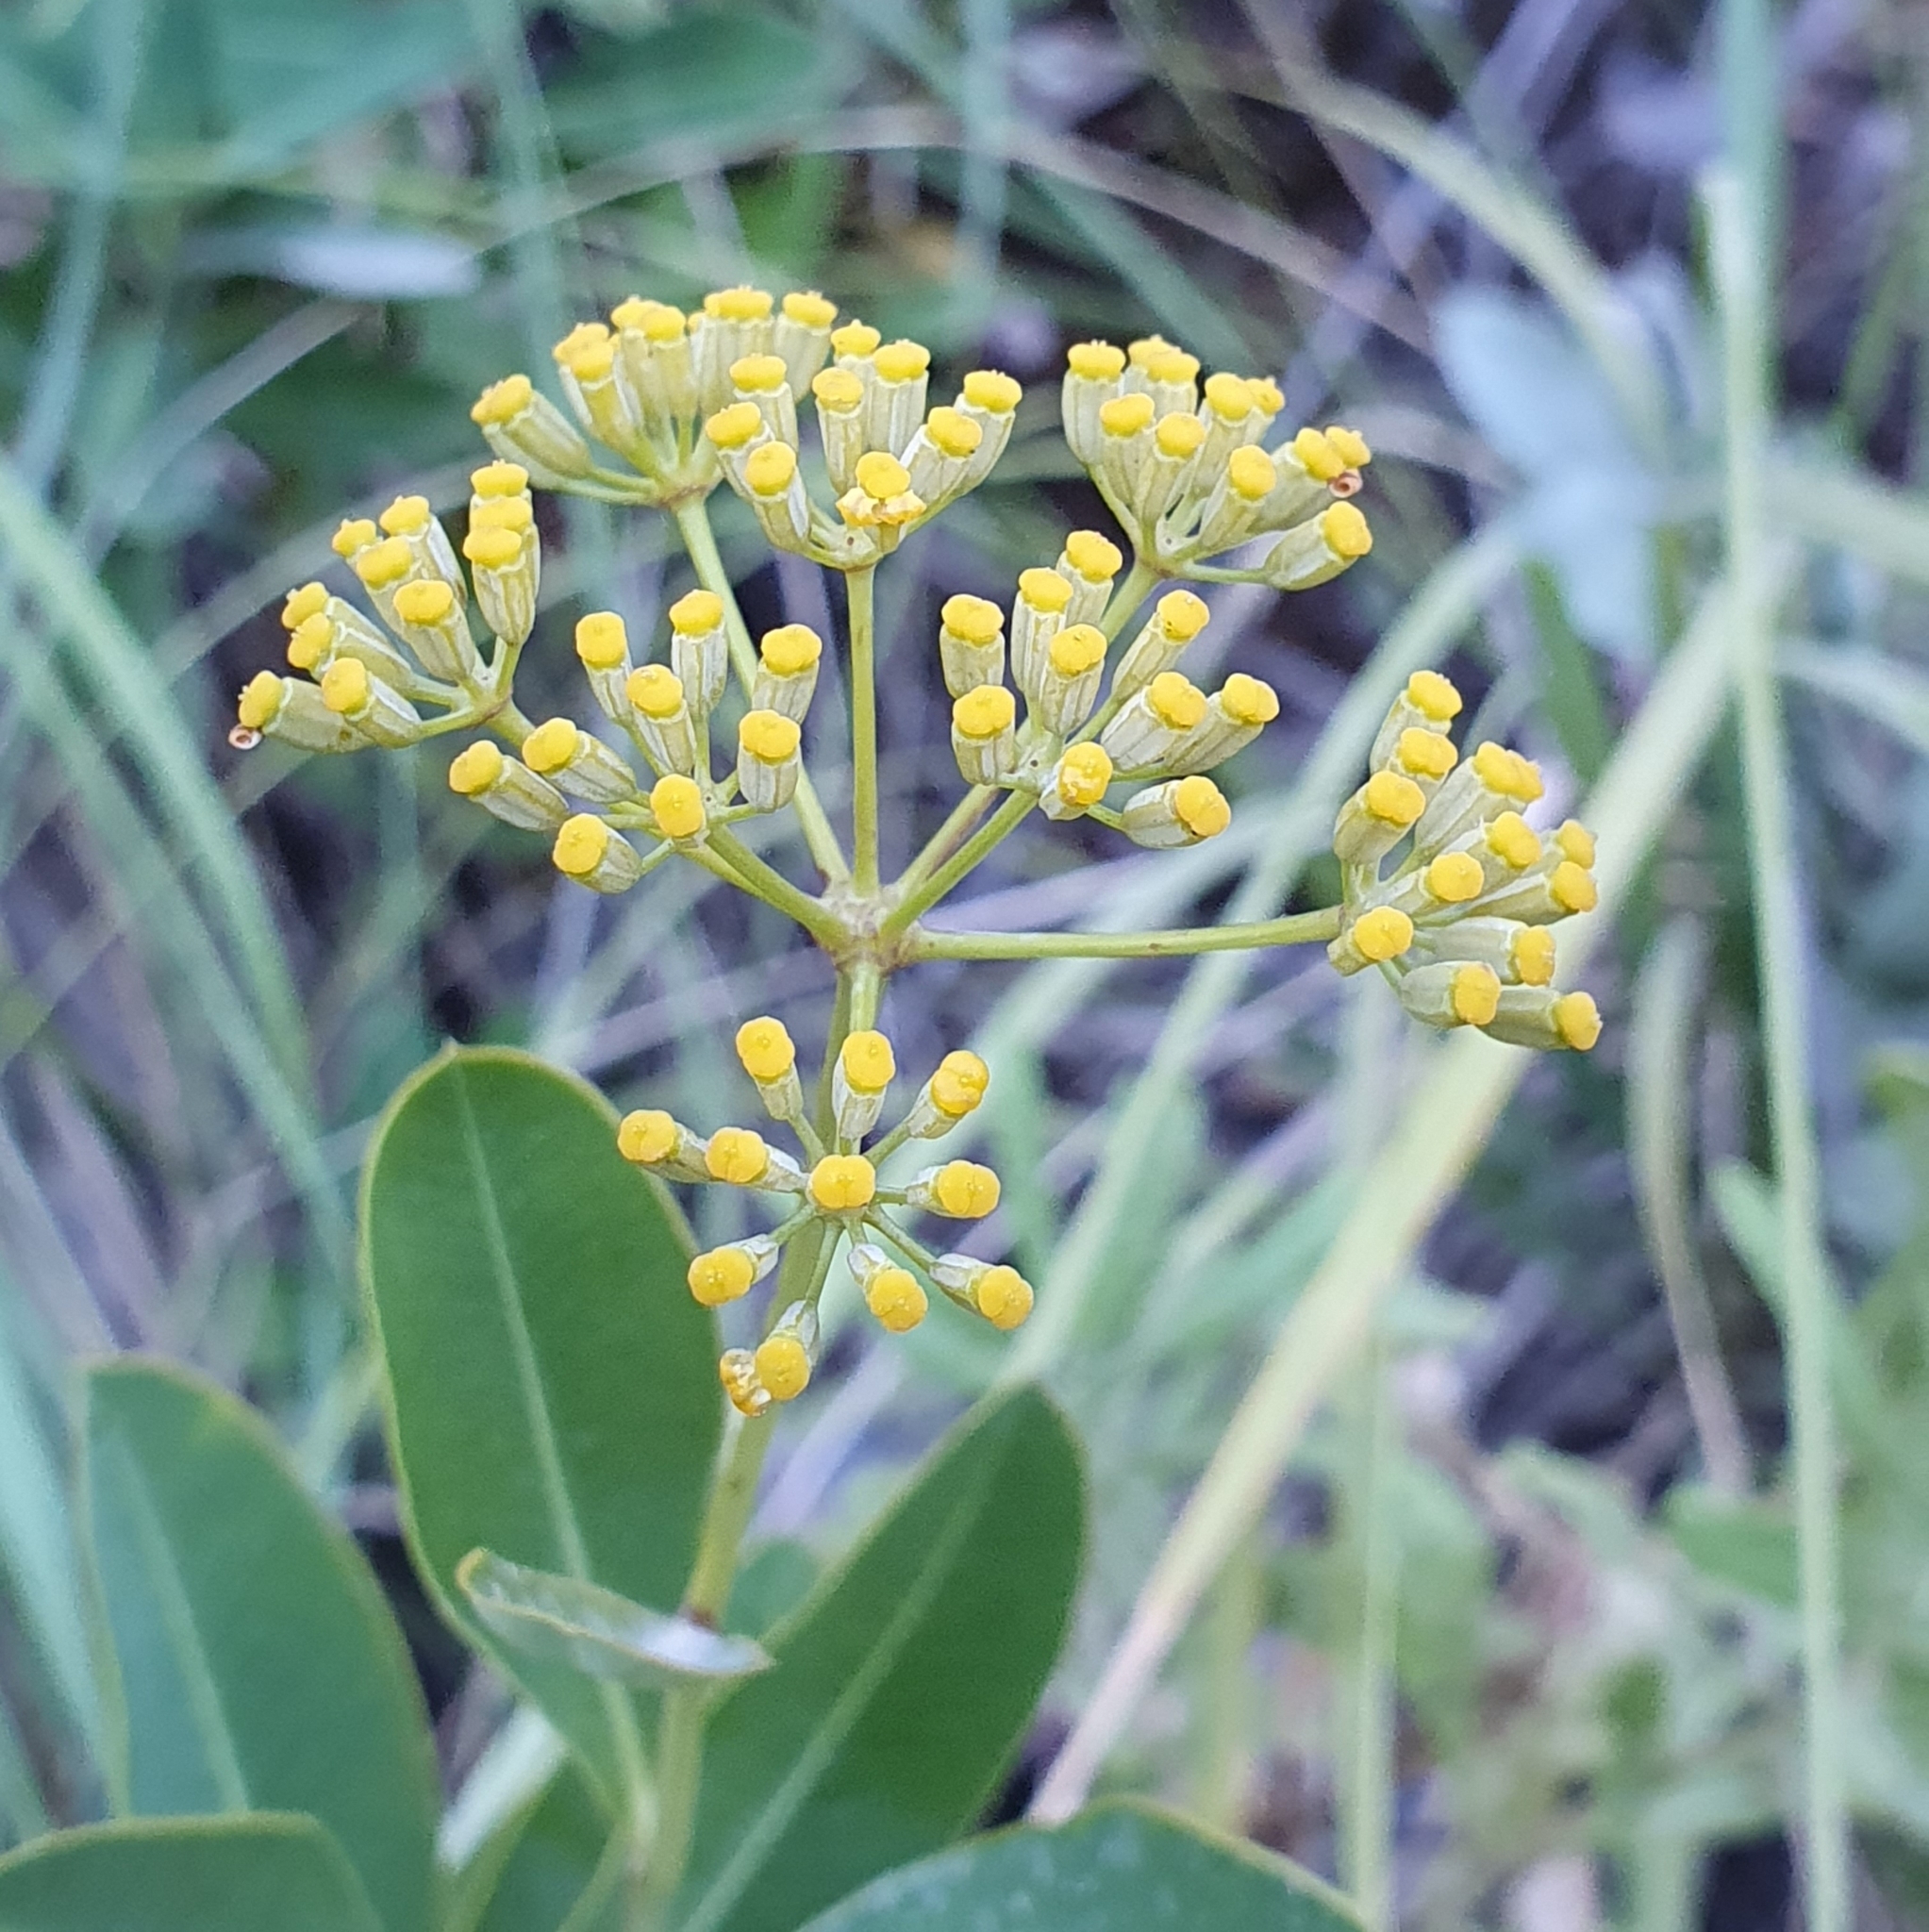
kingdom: Plantae
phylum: Tracheophyta
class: Magnoliopsida
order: Apiales
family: Apiaceae
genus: Bupleurum
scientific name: Bupleurum fruticosum
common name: Shrubby hare's-ear
